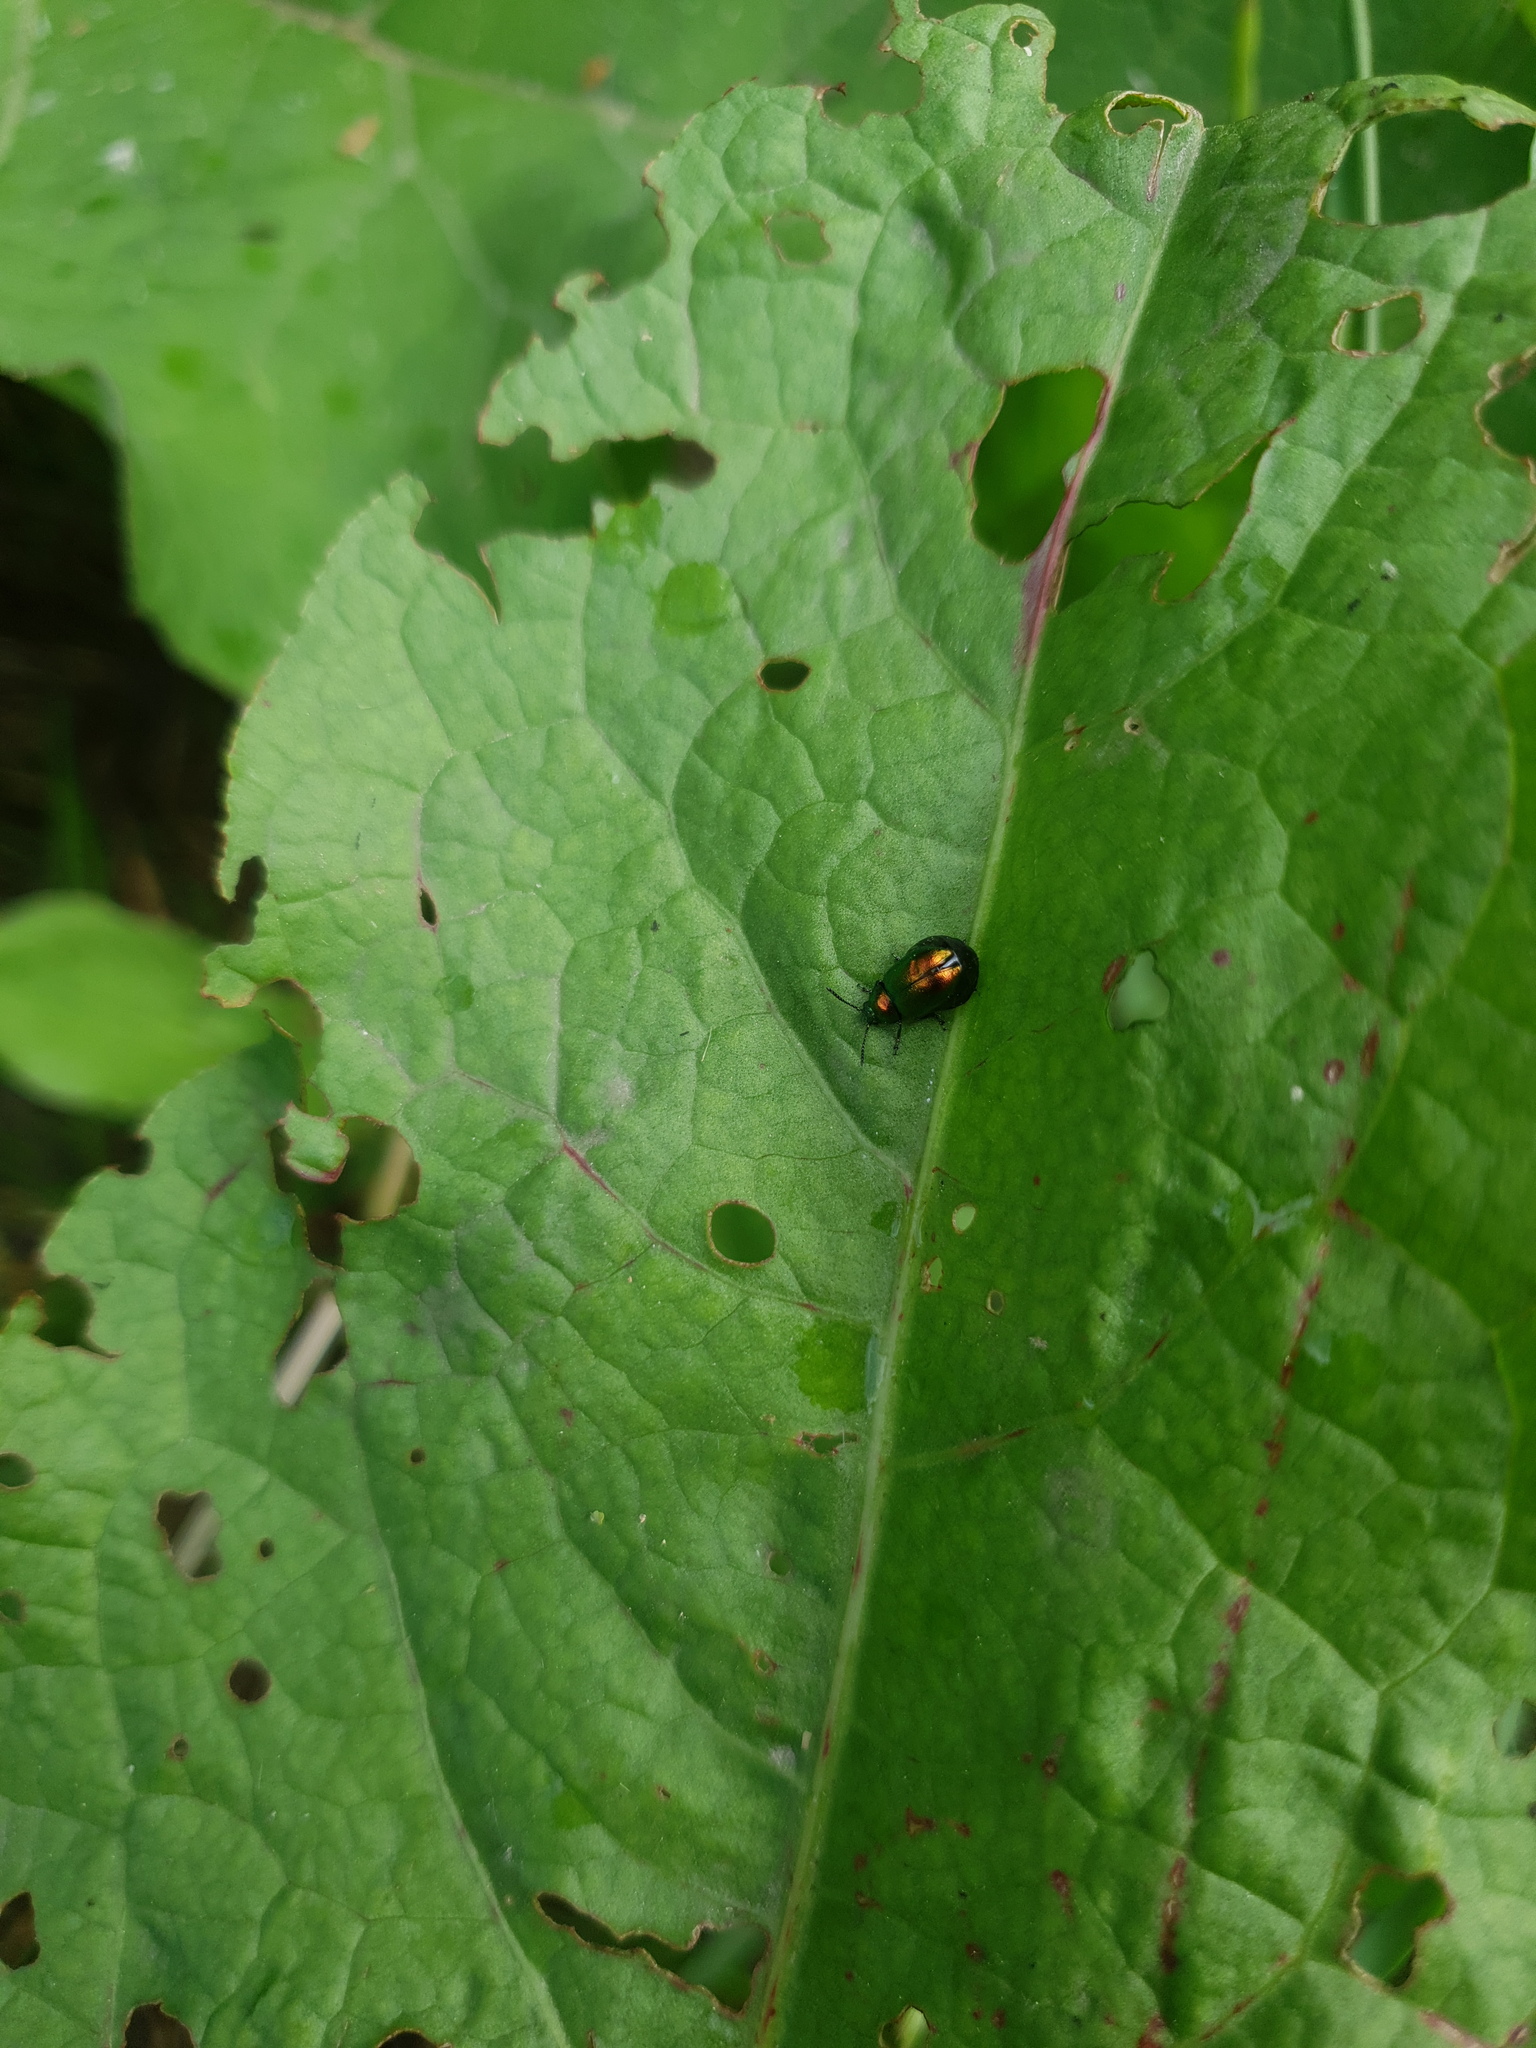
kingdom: Animalia
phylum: Arthropoda
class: Insecta
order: Coleoptera
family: Chrysomelidae
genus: Gastrophysa
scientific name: Gastrophysa viridula
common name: Green dock beetle
